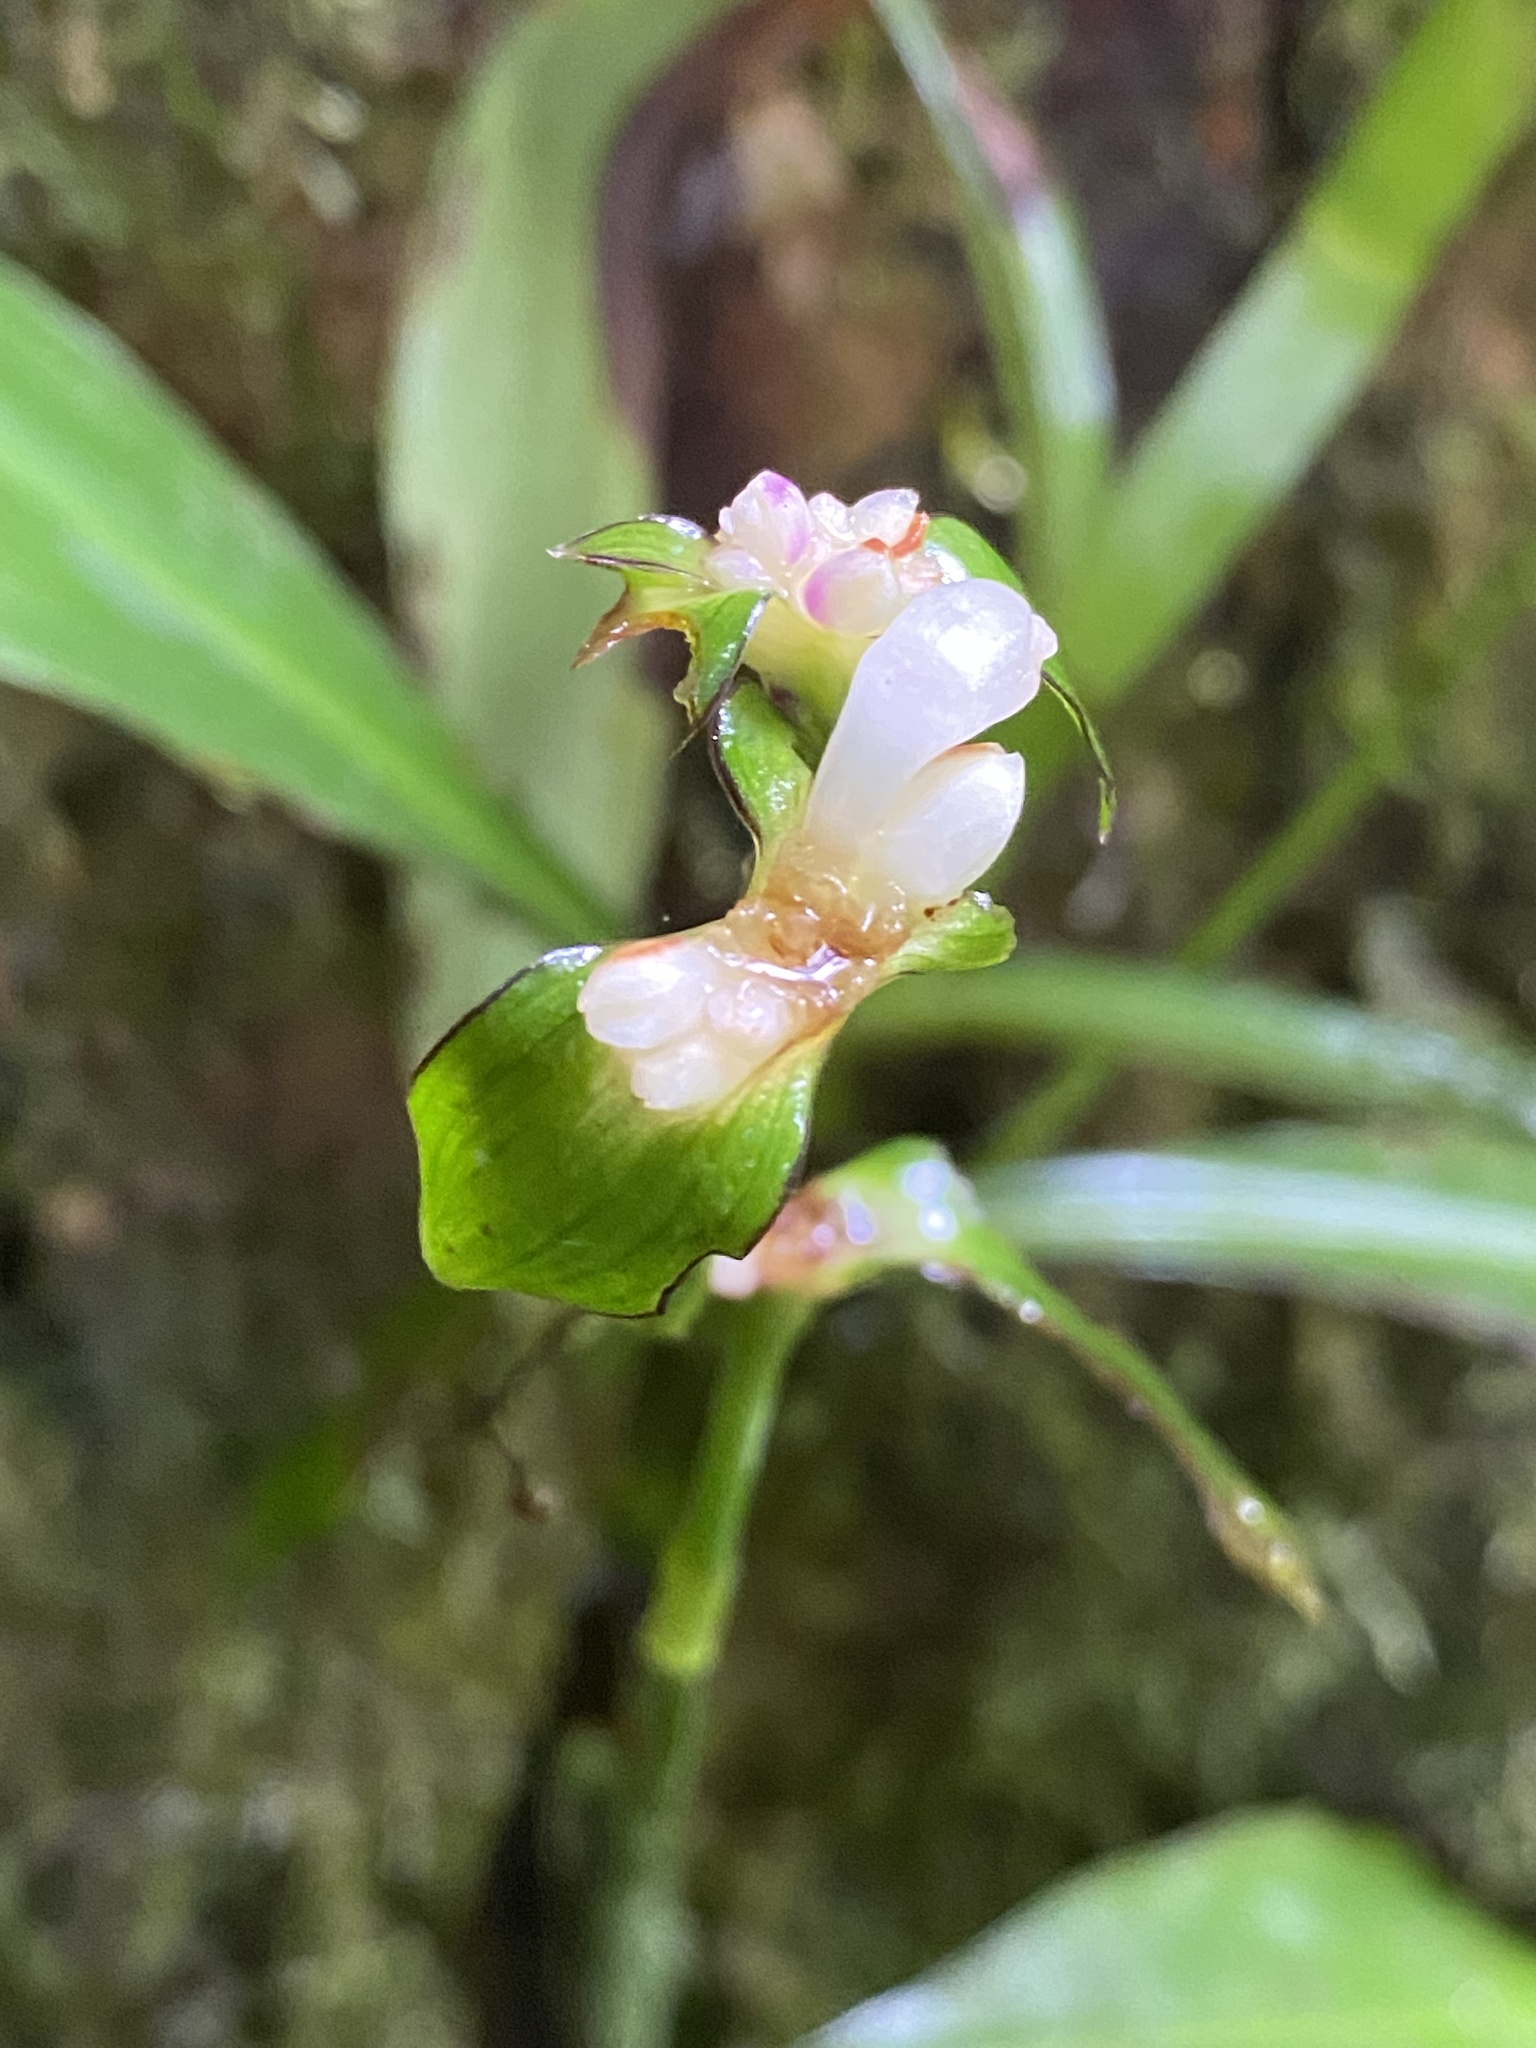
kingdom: Plantae
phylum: Tracheophyta
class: Liliopsida
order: Commelinales
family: Commelinaceae
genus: Tradescantia
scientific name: Tradescantia zanonia
